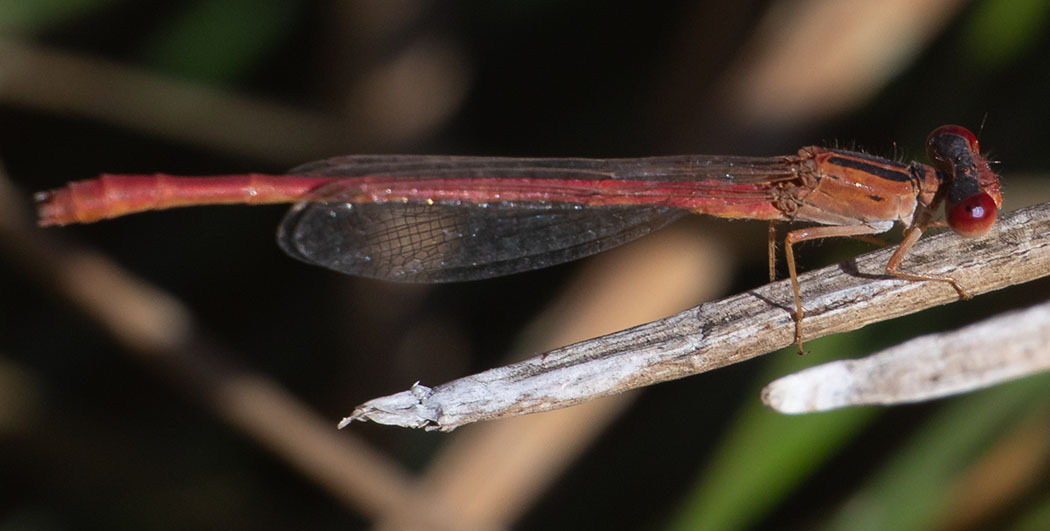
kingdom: Animalia
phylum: Arthropoda
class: Insecta
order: Odonata
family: Coenagrionidae
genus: Telebasis
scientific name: Telebasis salva
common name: Desert firetail
